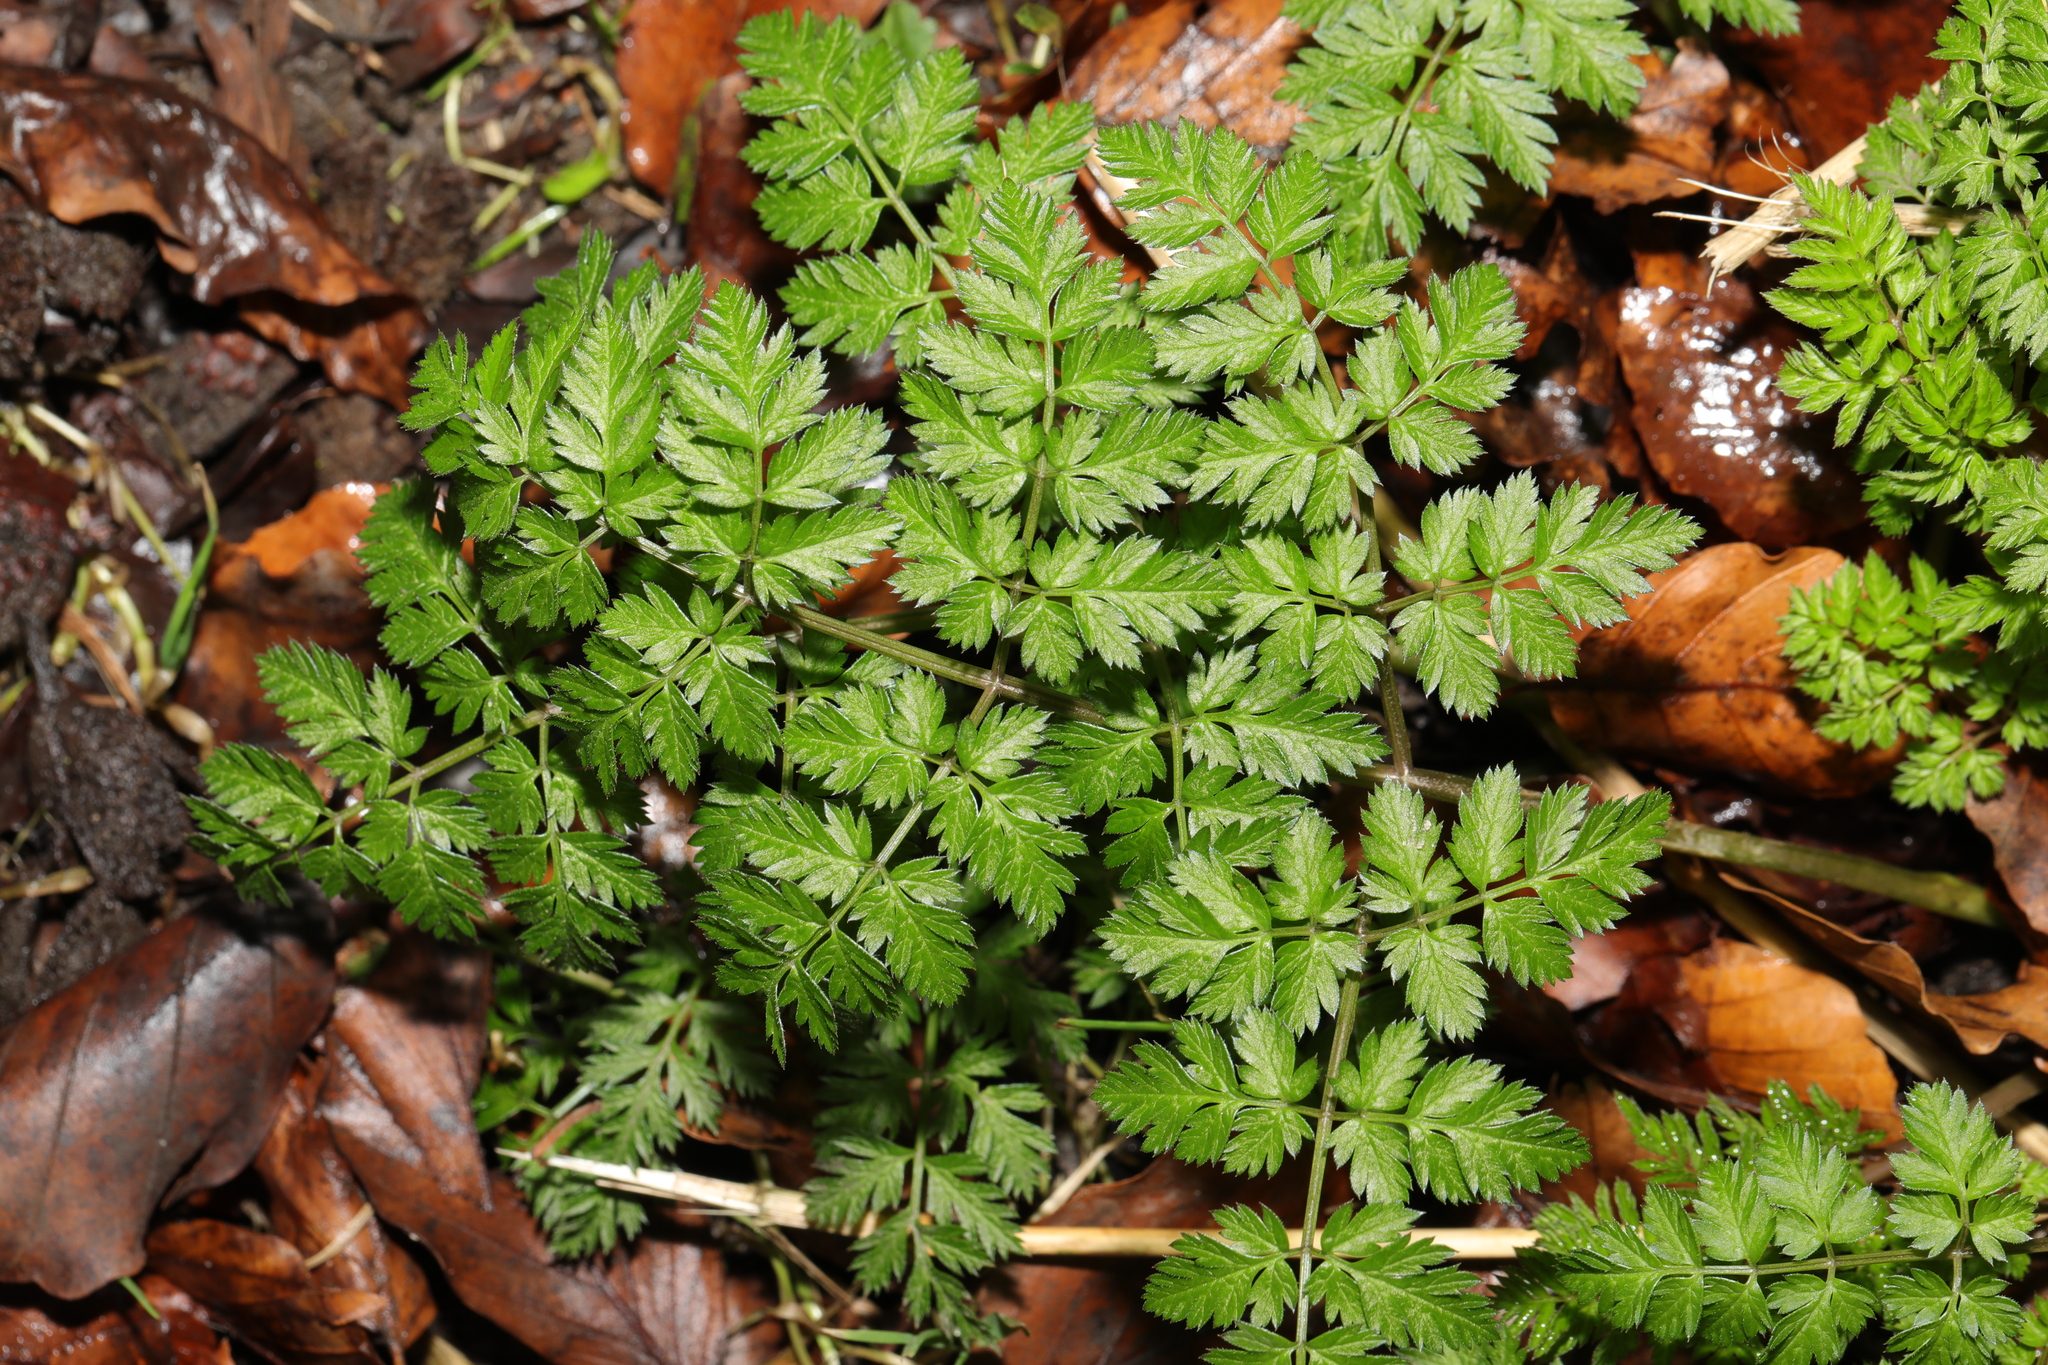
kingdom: Plantae
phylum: Tracheophyta
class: Magnoliopsida
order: Apiales
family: Apiaceae
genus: Anthriscus
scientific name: Anthriscus sylvestris
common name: Cow parsley
